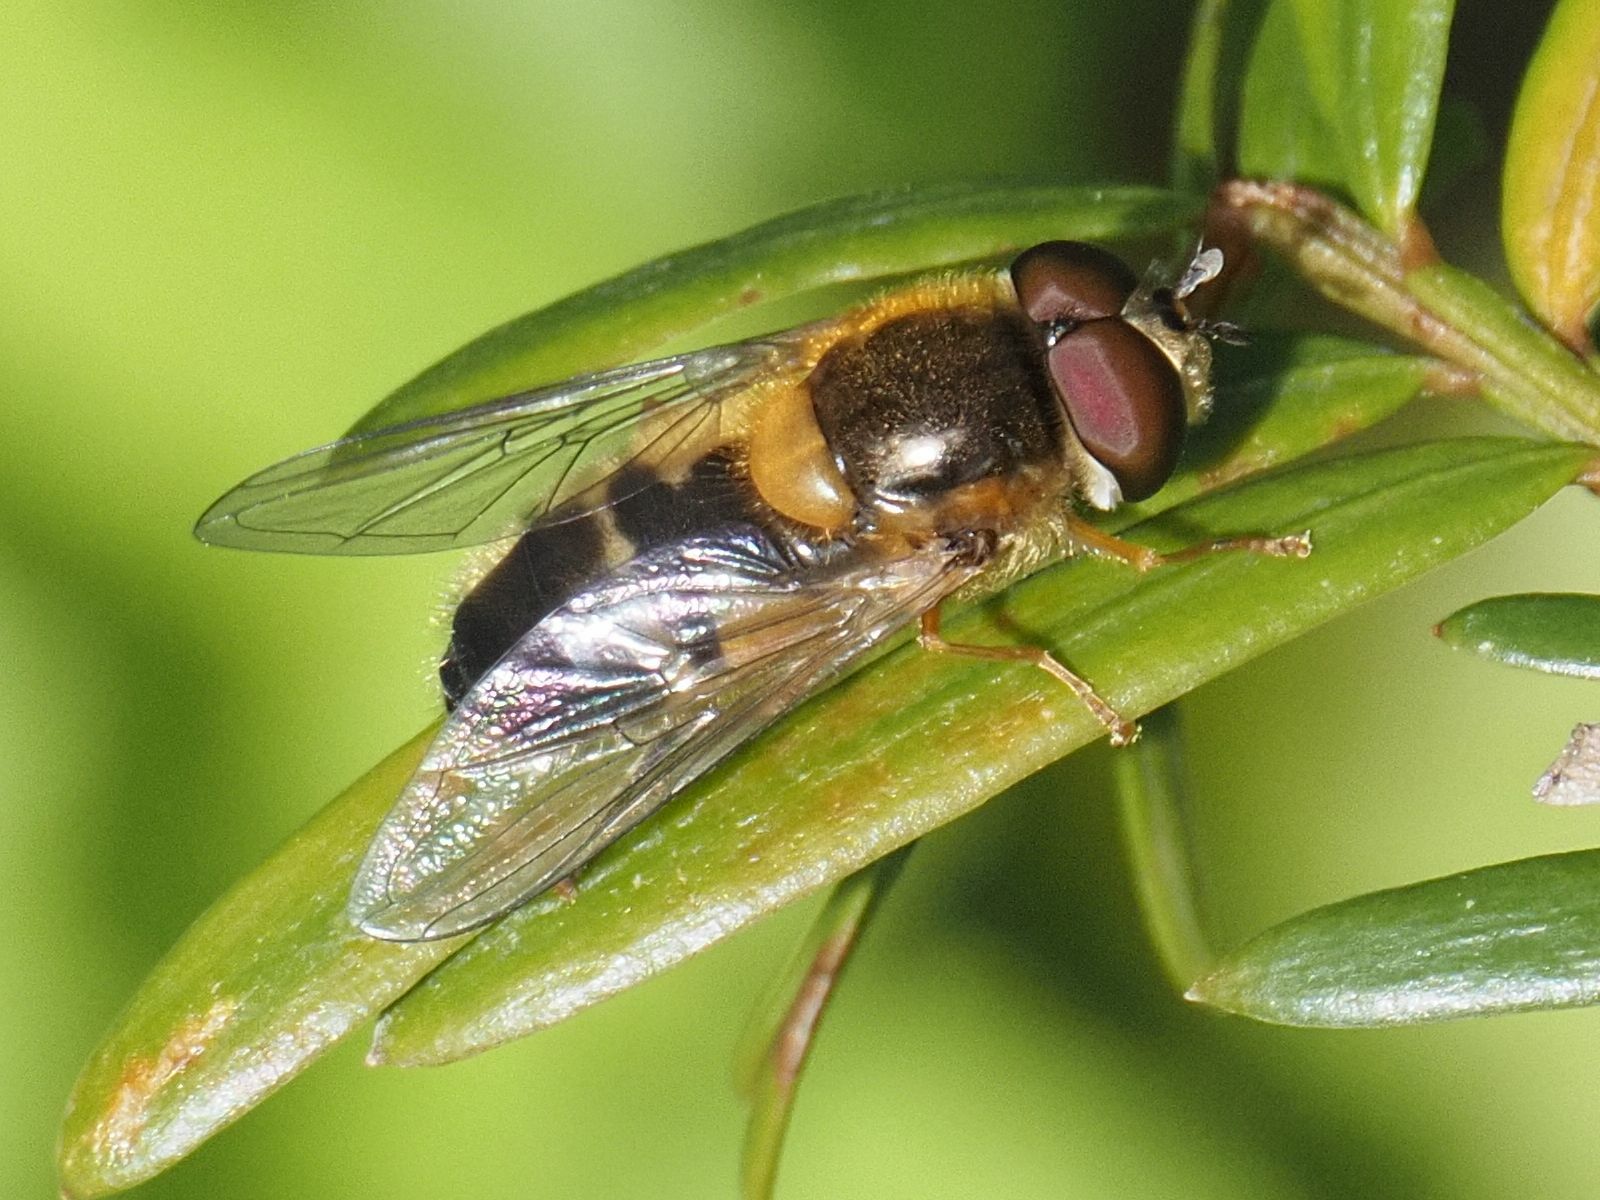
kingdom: Animalia
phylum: Arthropoda
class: Insecta
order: Diptera
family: Syrphidae
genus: Epistrophe
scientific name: Epistrophe eligans
